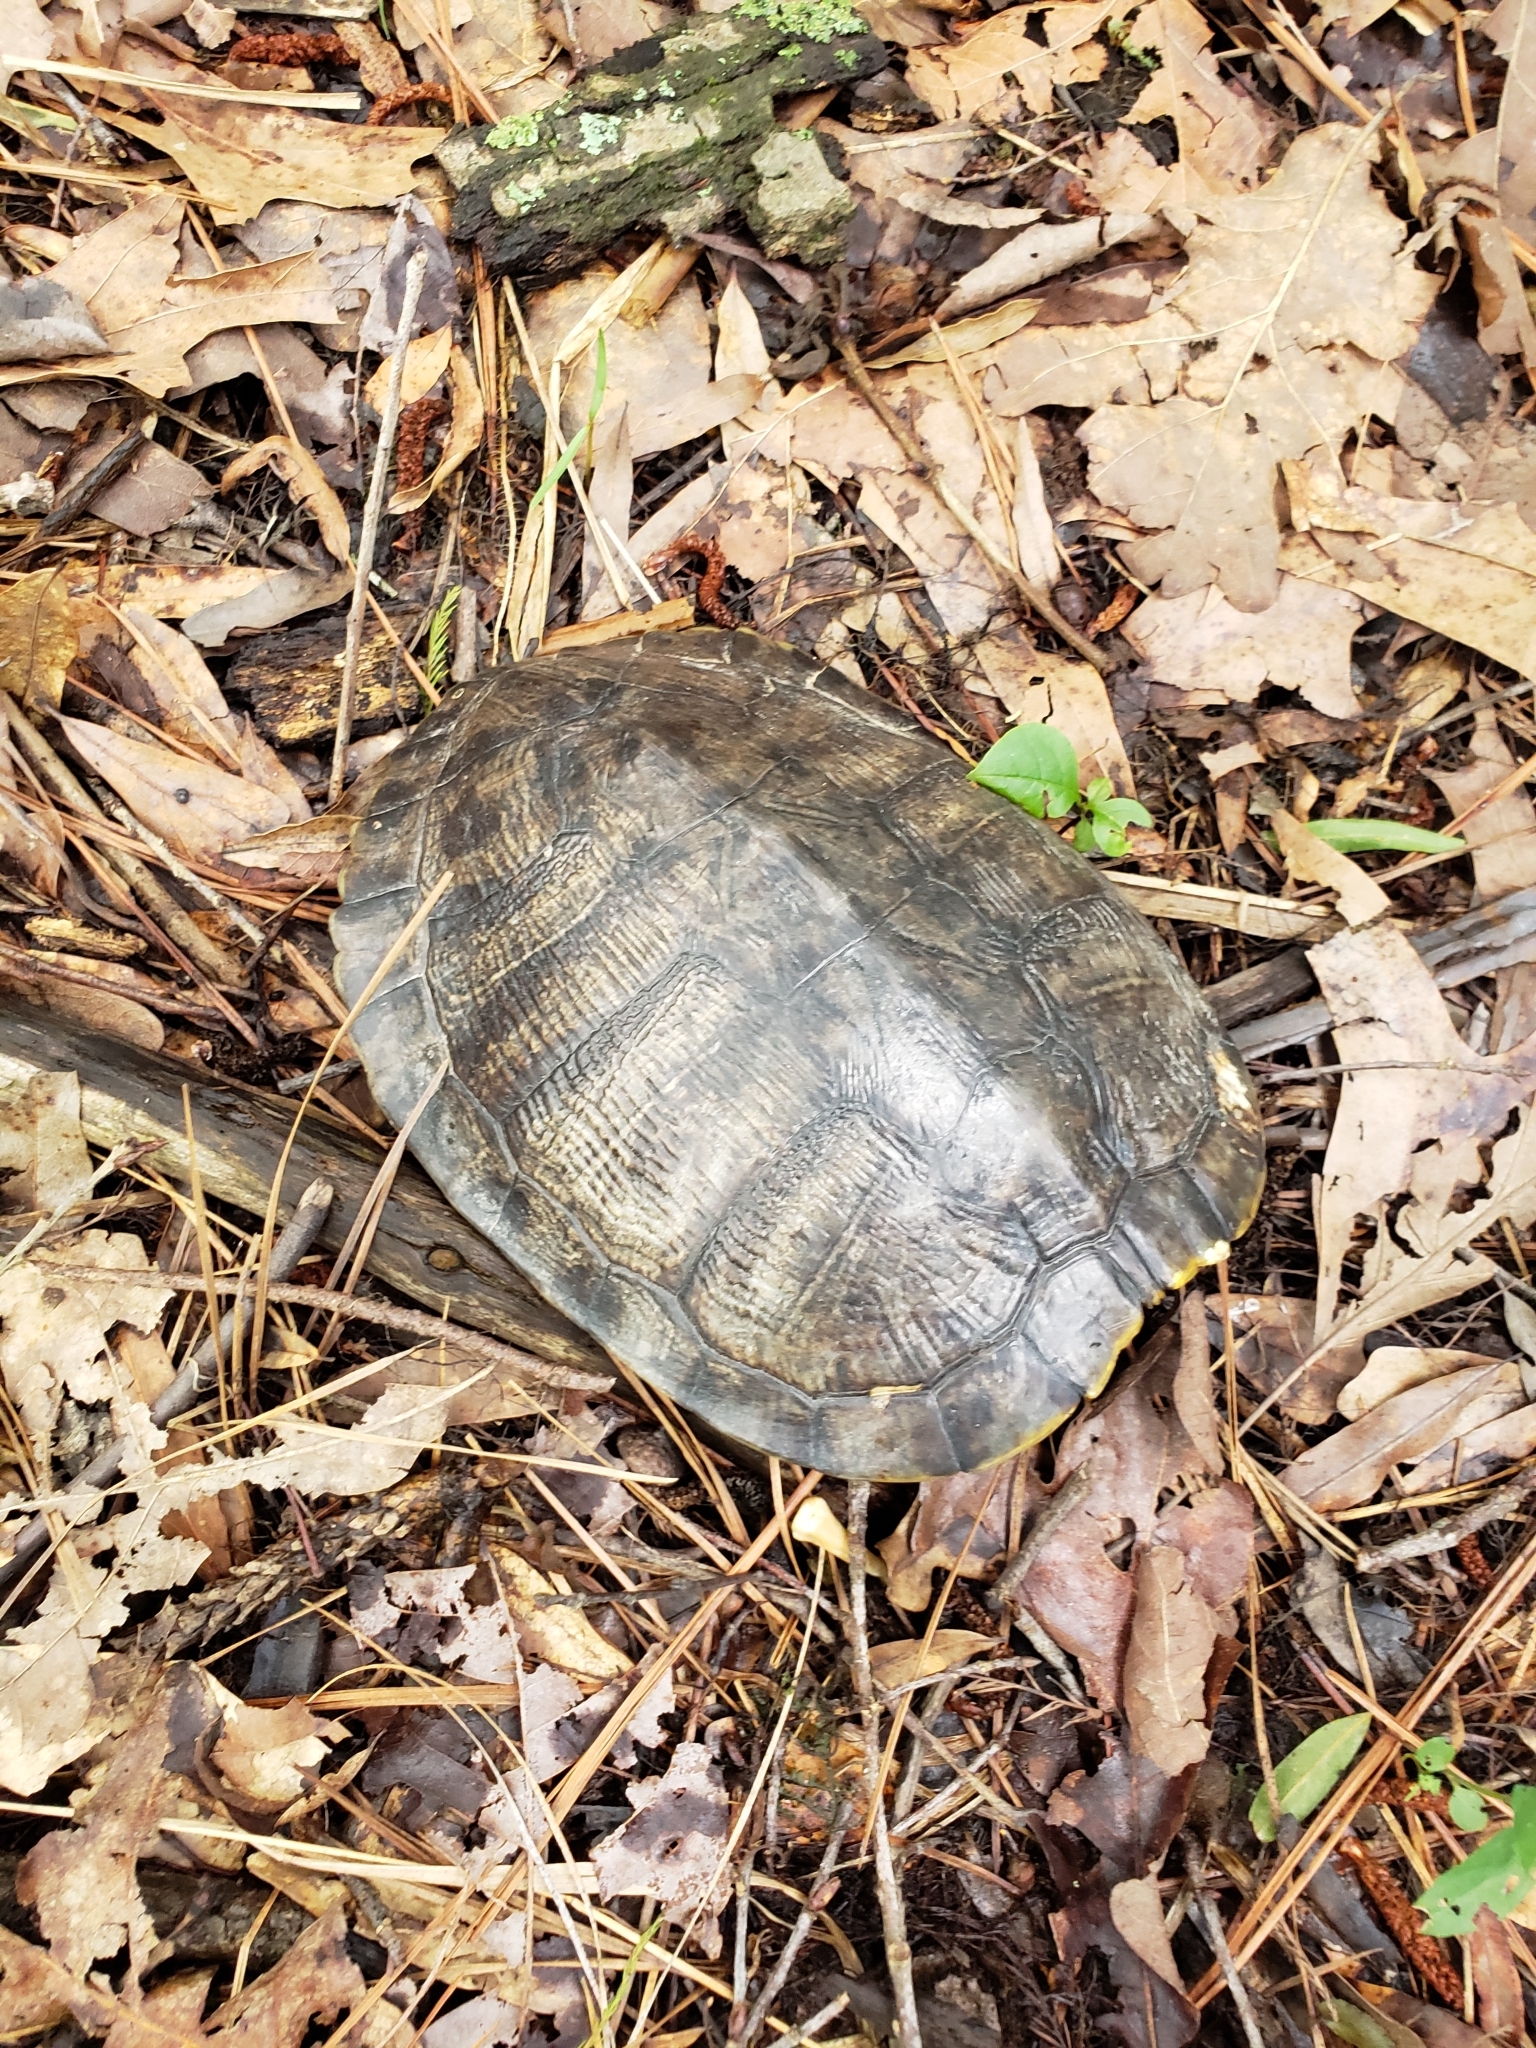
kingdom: Animalia
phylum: Chordata
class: Testudines
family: Emydidae
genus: Trachemys
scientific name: Trachemys scripta
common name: Slider
